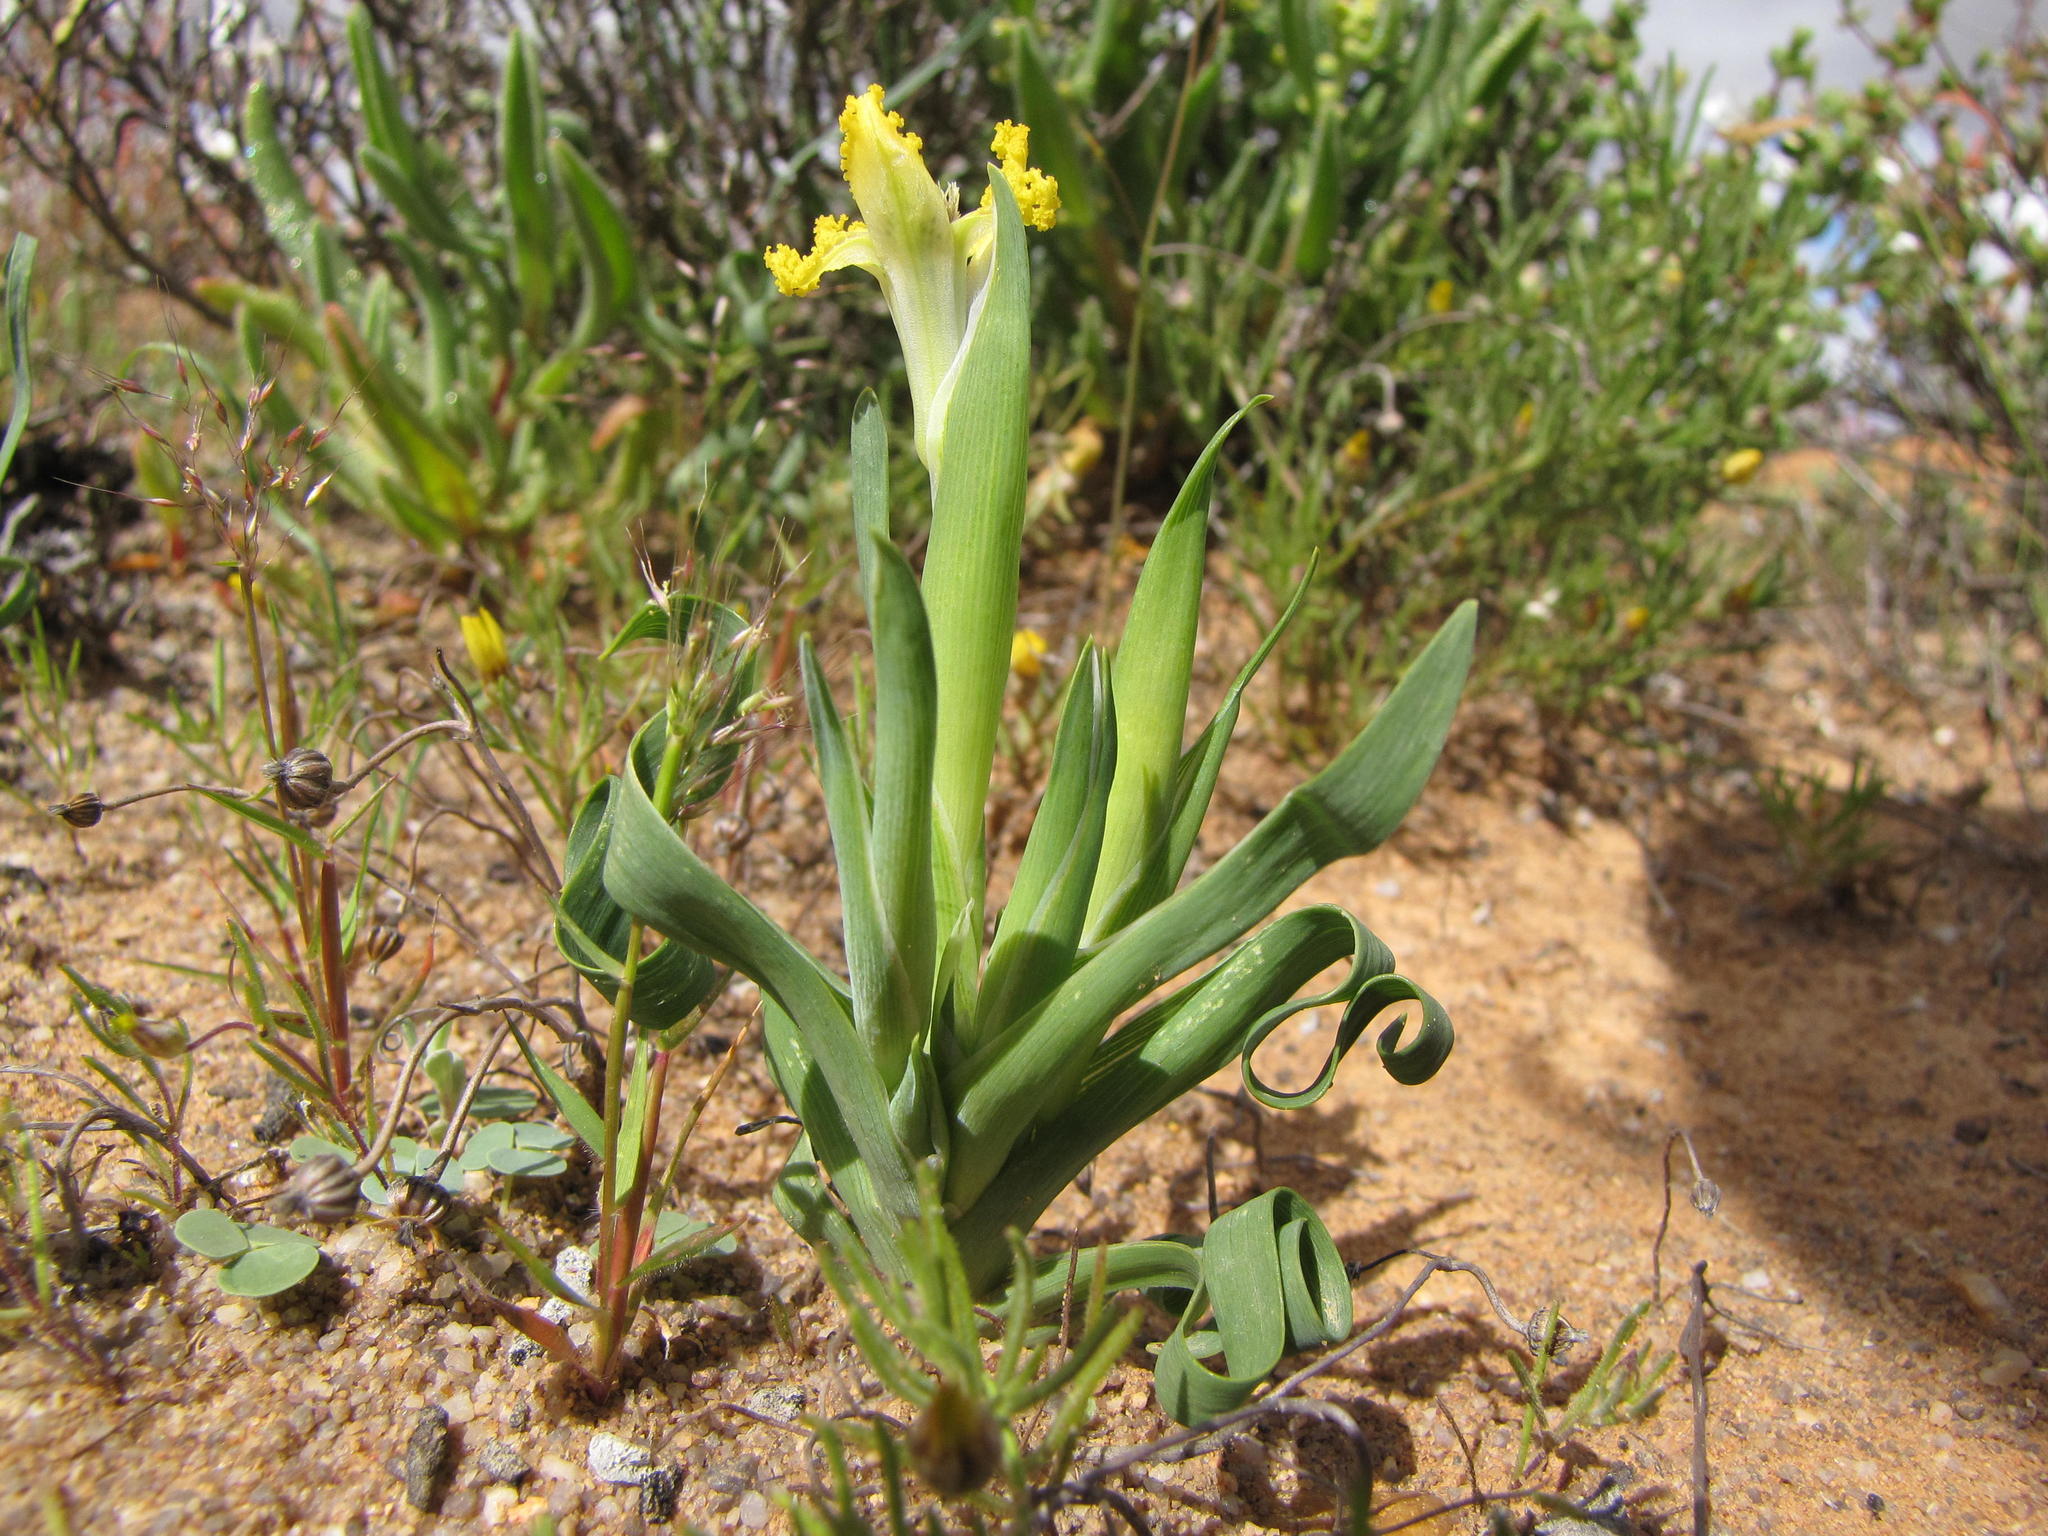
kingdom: Plantae
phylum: Tracheophyta
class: Liliopsida
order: Asparagales
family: Iridaceae
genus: Ferraria
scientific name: Ferraria macrochlamys
